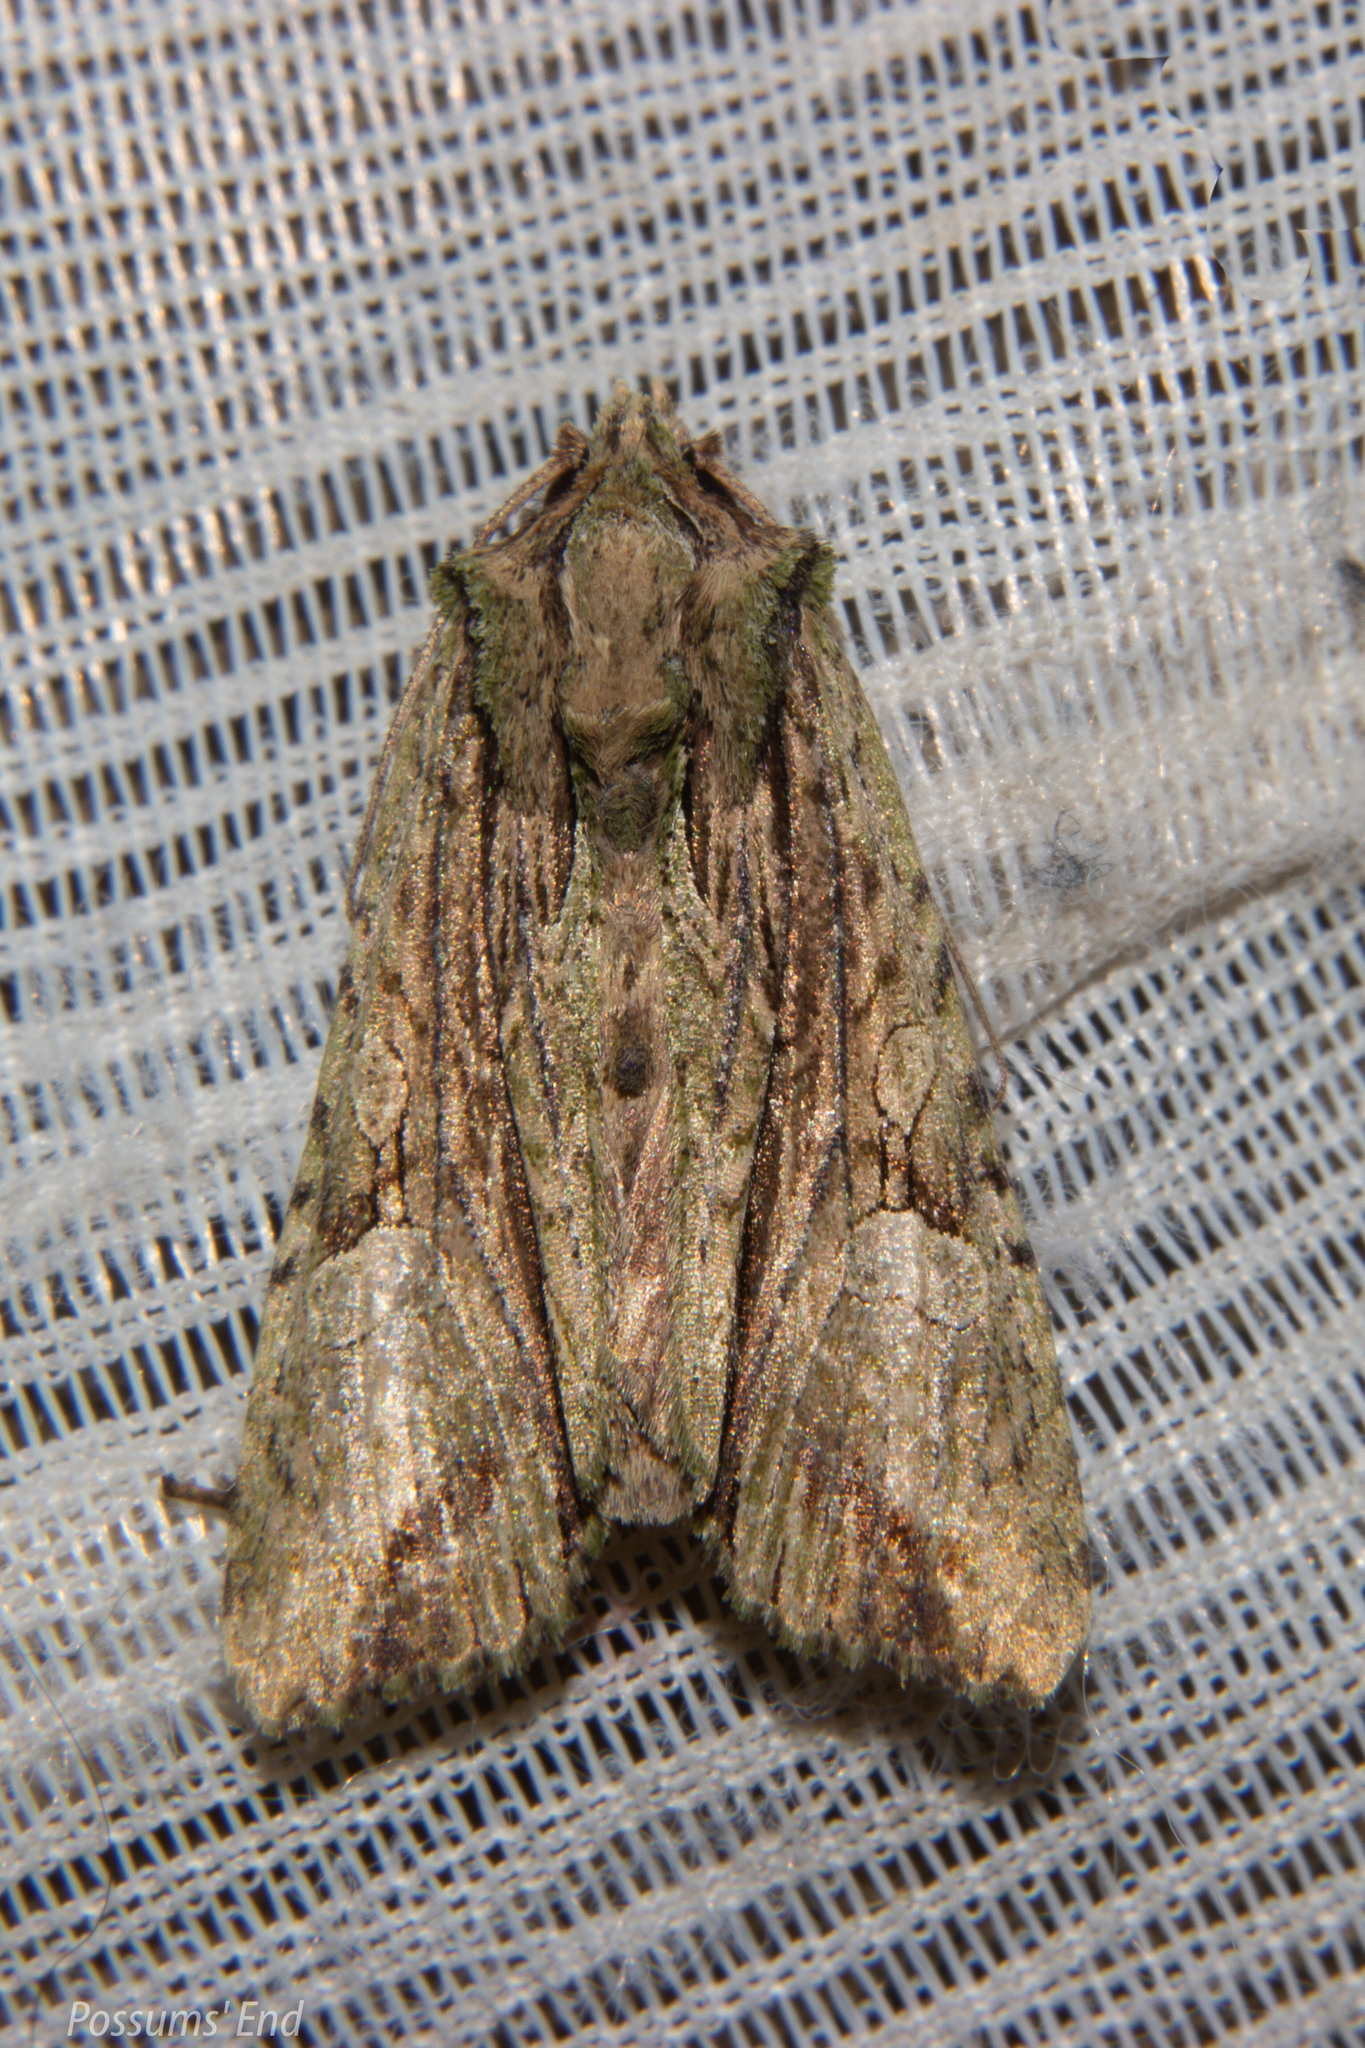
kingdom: Animalia
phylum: Arthropoda
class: Insecta
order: Lepidoptera
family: Noctuidae
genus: Meterana
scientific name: Meterana decorata
